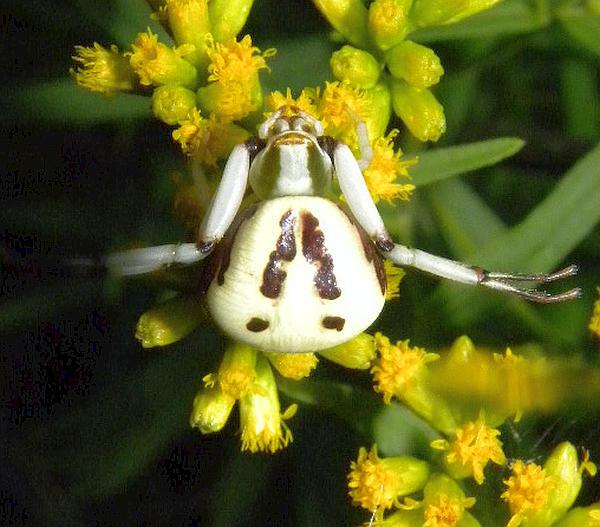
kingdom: Animalia
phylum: Arthropoda
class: Arachnida
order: Araneae
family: Thomisidae
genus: Misumenoides
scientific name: Misumenoides formosipes
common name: White-banded crab spider
